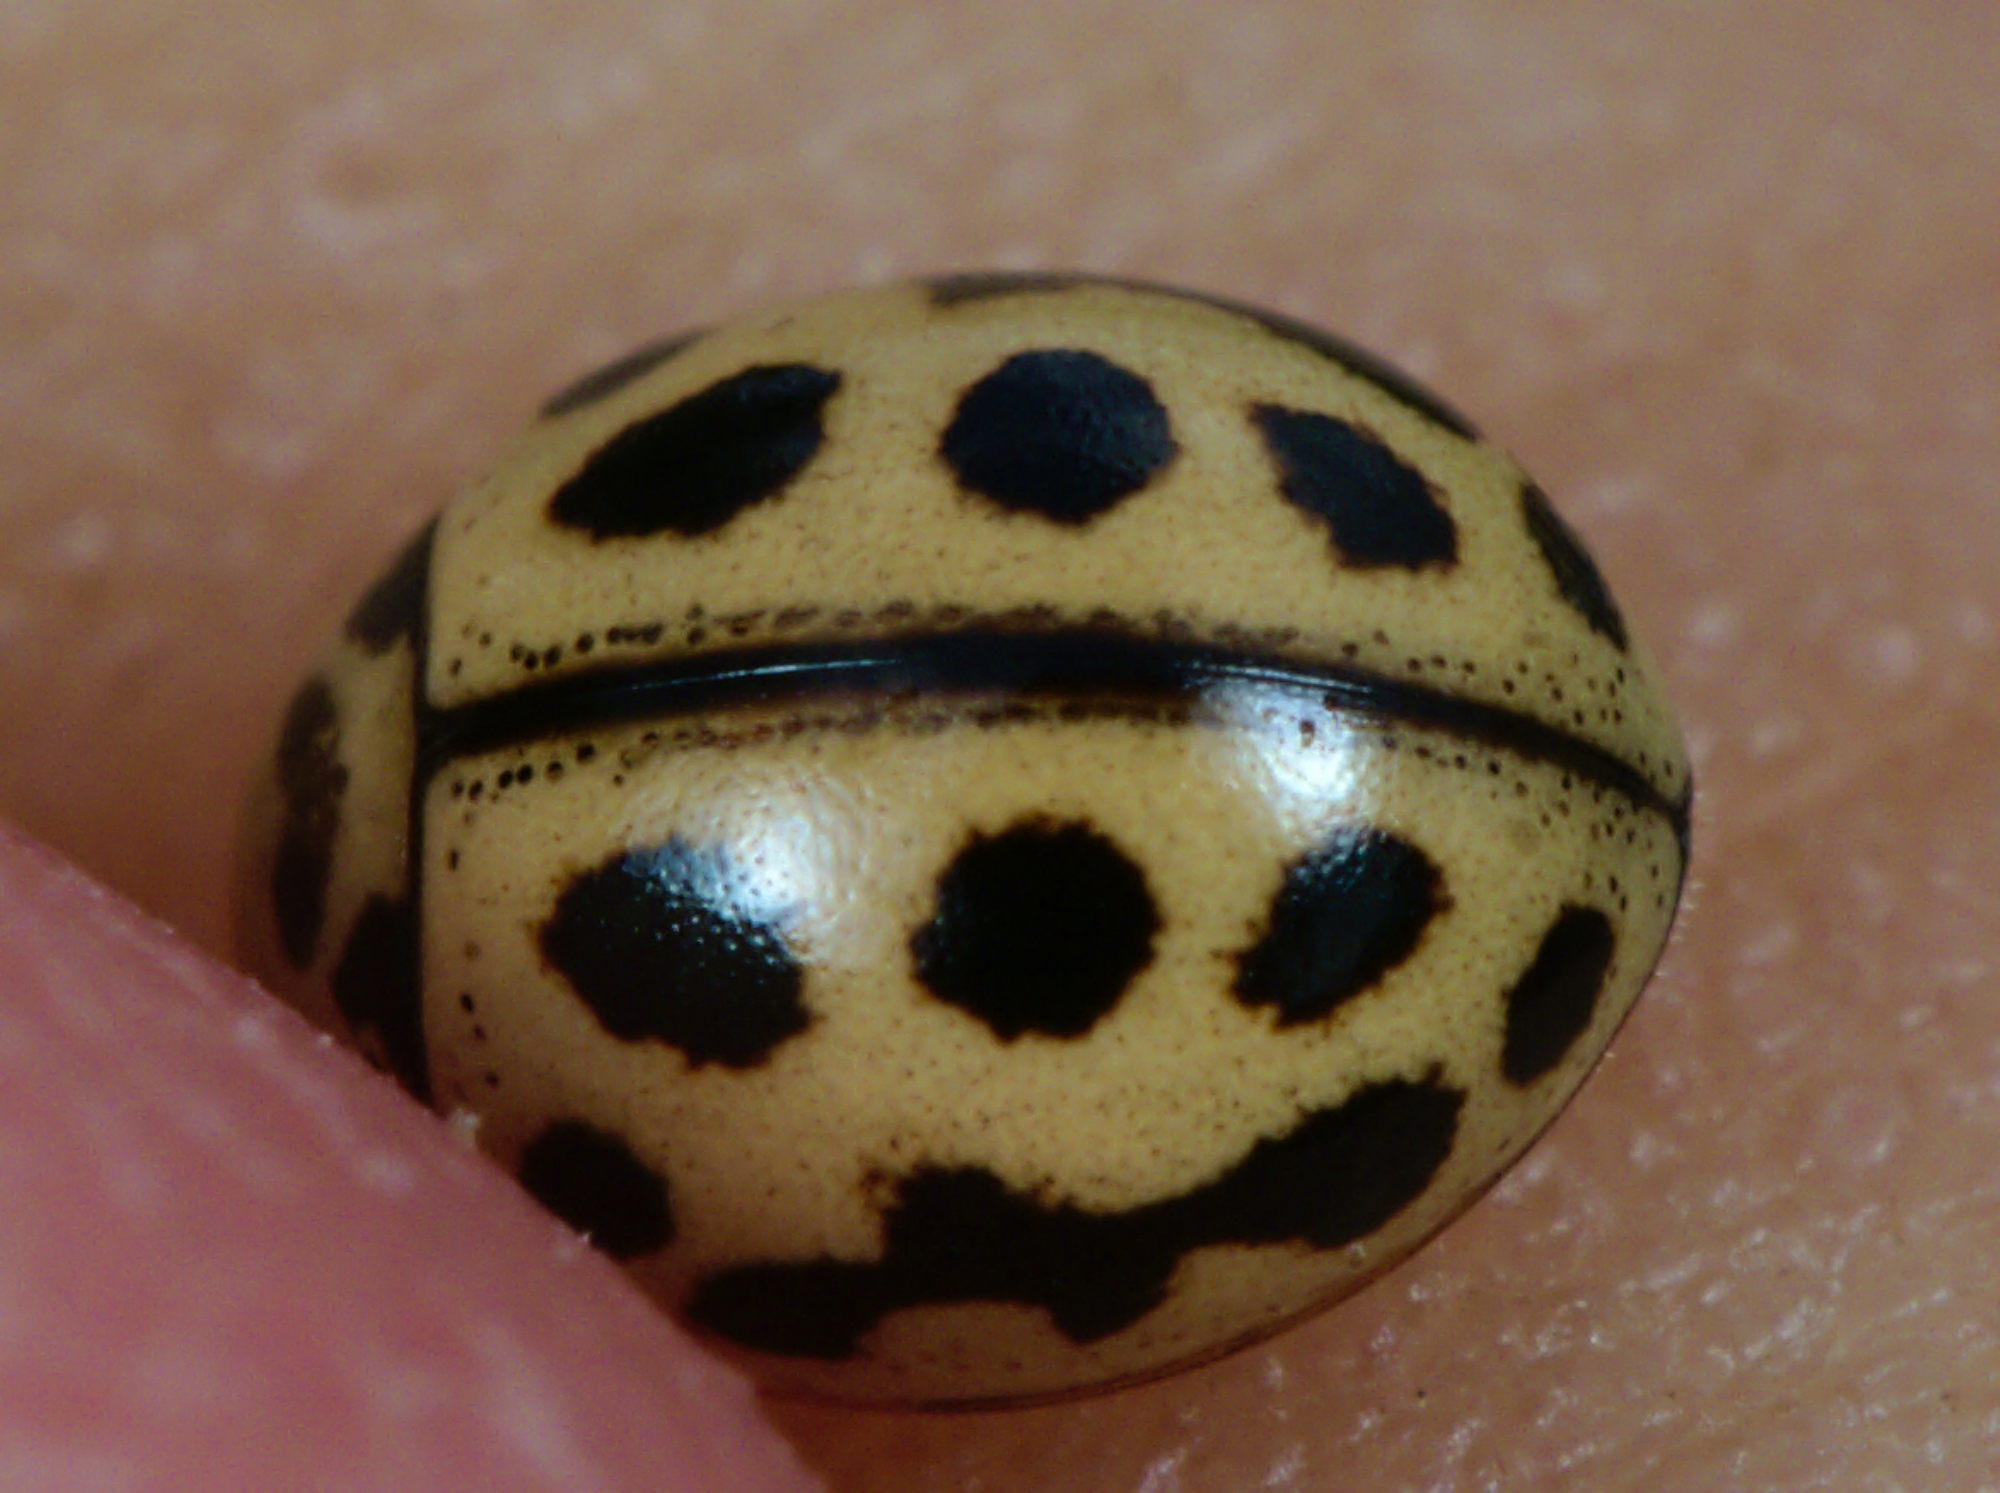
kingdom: Animalia
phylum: Arthropoda
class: Insecta
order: Coleoptera
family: Coccinellidae
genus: Tytthaspis
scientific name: Tytthaspis sedecimpunctata
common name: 16-spot ladybird
